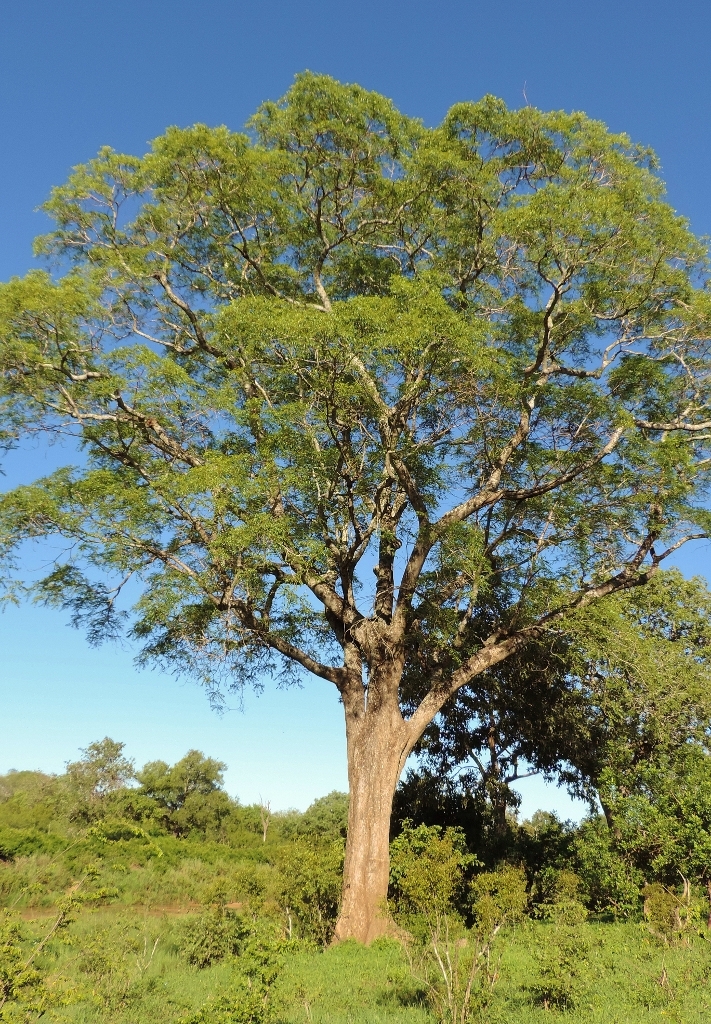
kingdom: Plantae
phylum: Tracheophyta
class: Magnoliopsida
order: Sapindales
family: Kirkiaceae
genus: Kirkia
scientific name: Kirkia acuminata
